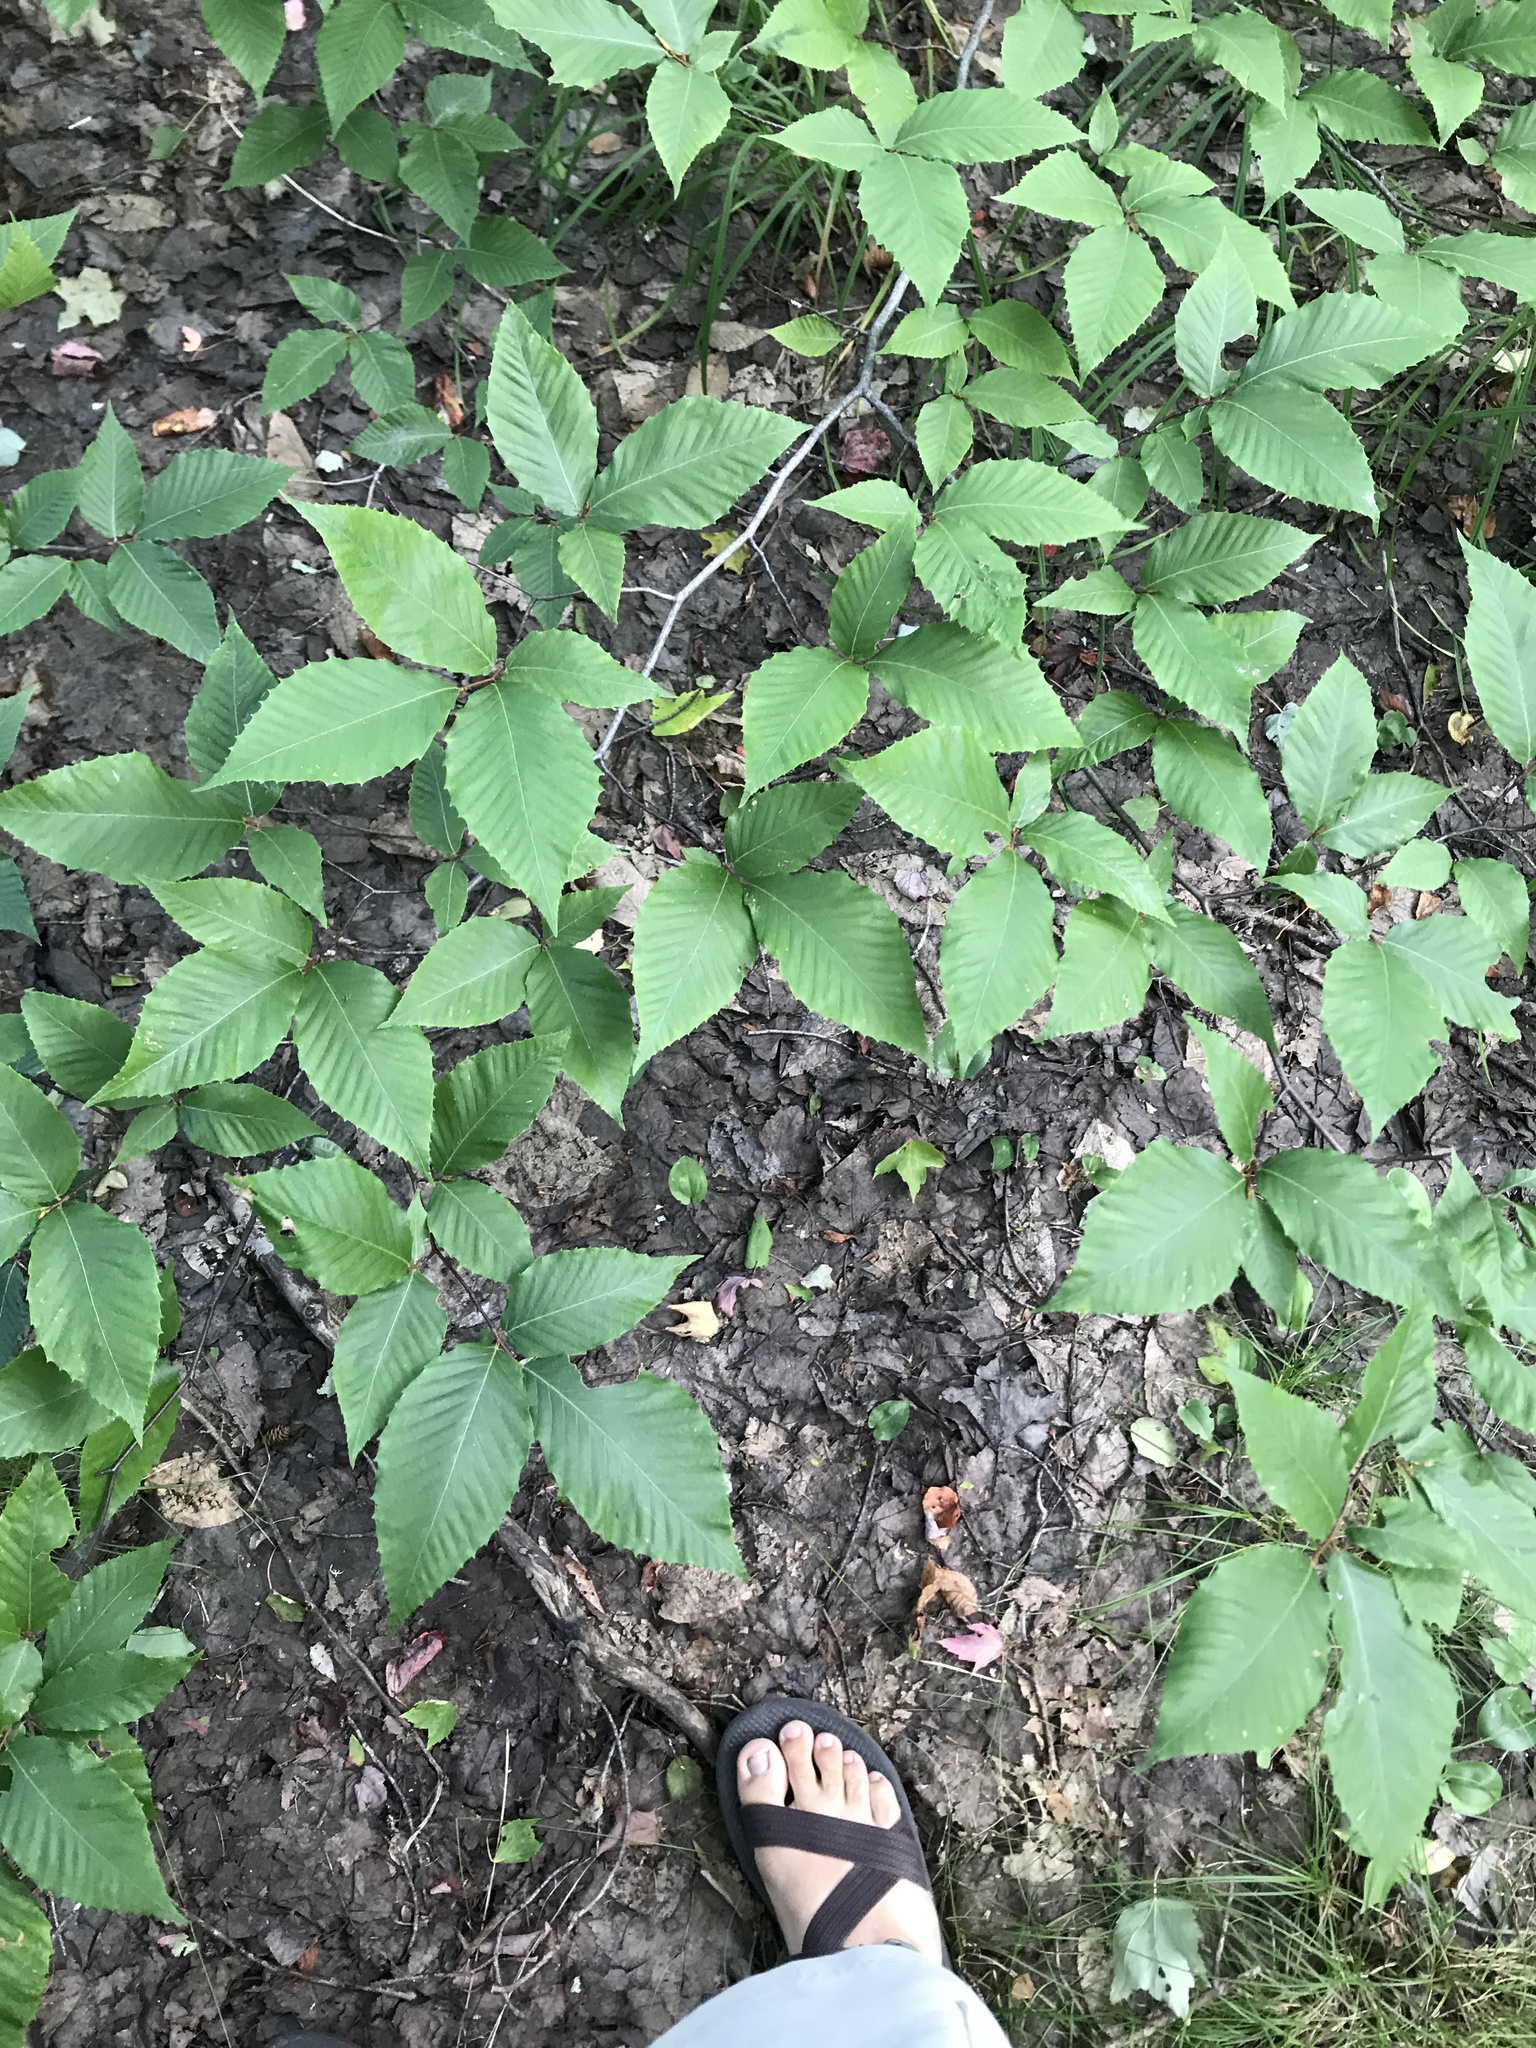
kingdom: Plantae
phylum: Tracheophyta
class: Magnoliopsida
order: Fagales
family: Fagaceae
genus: Fagus
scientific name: Fagus grandifolia
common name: American beech
